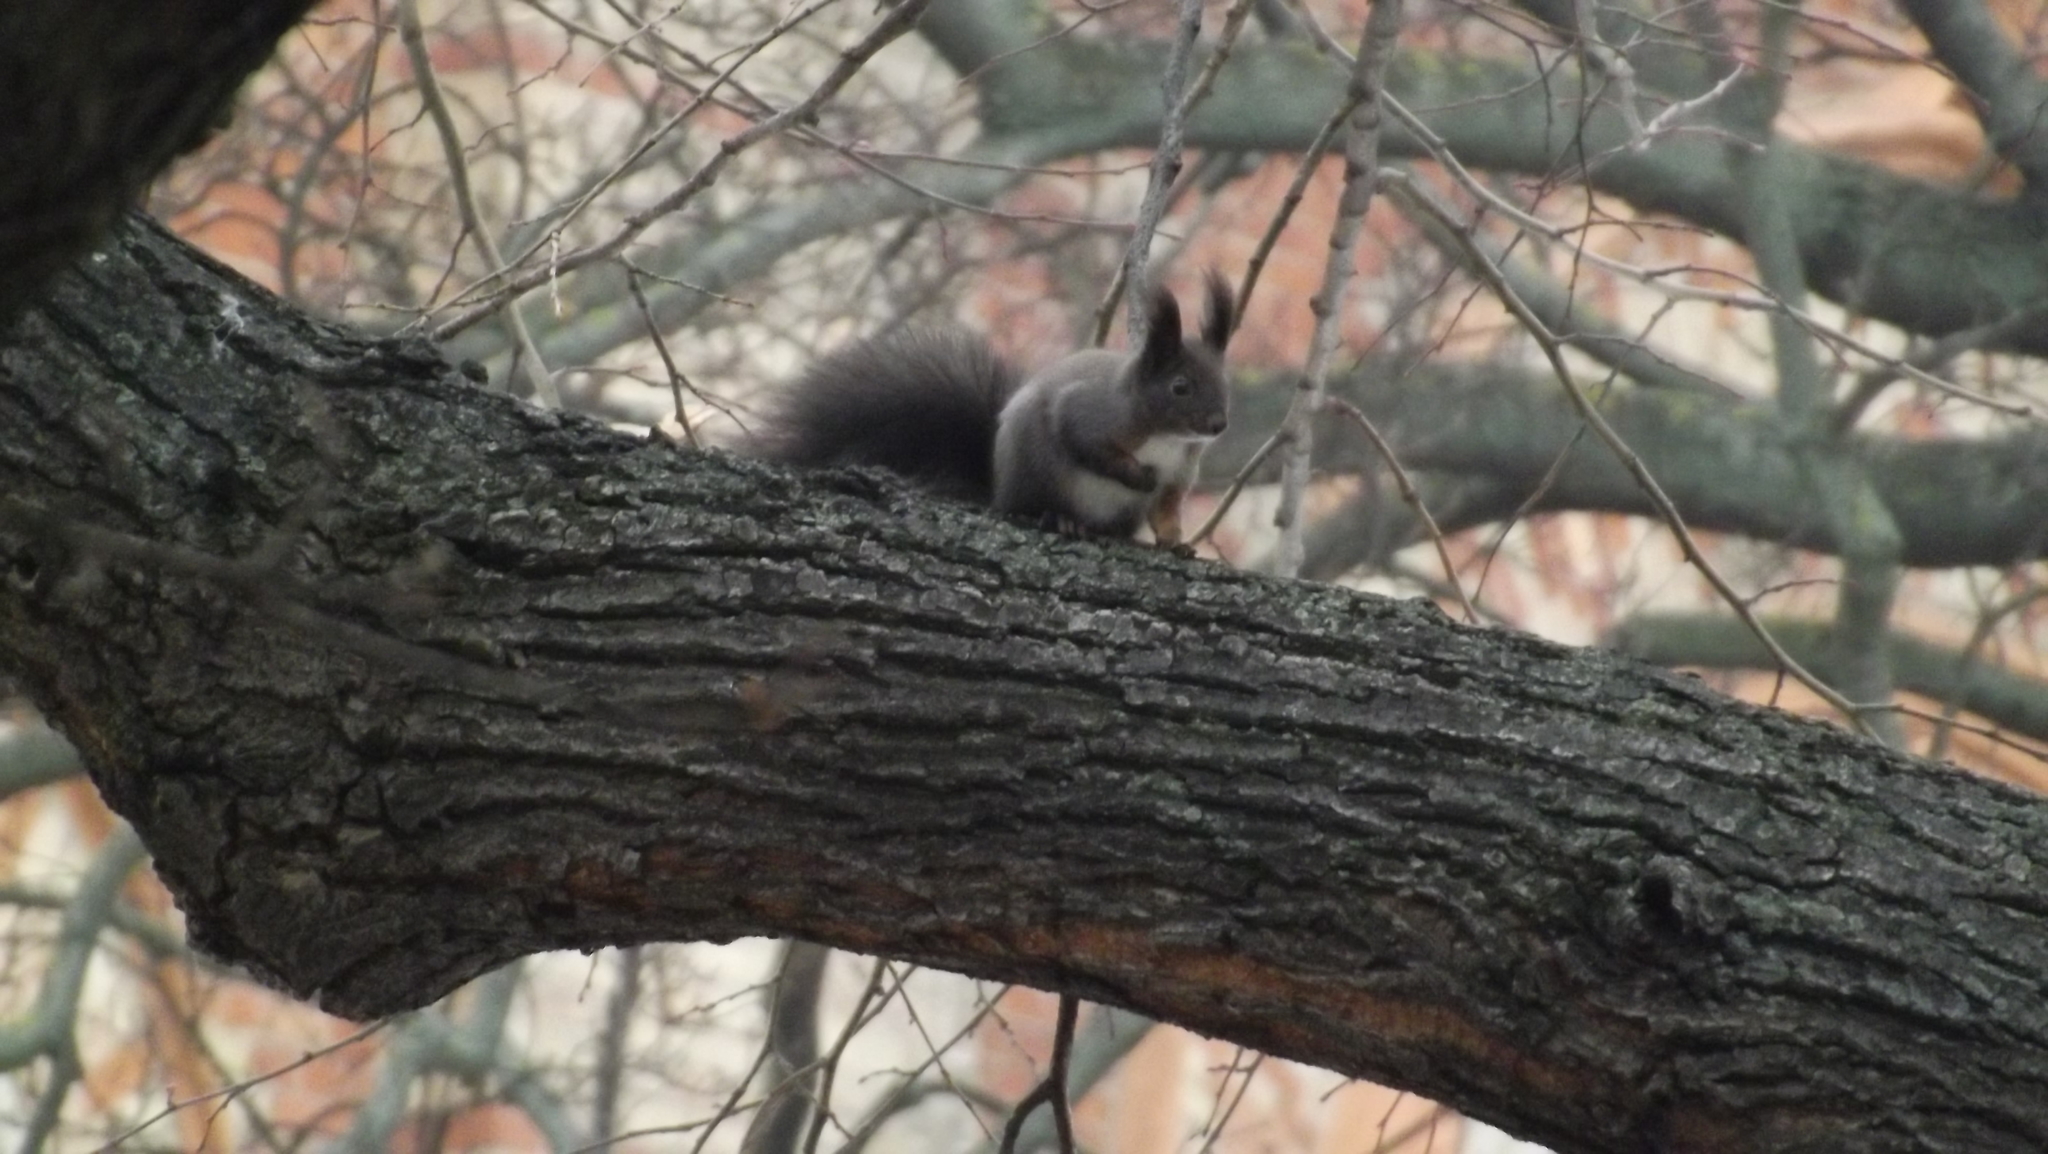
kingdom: Animalia
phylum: Chordata
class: Mammalia
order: Rodentia
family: Sciuridae
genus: Sciurus
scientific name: Sciurus vulgaris
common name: Eurasian red squirrel
